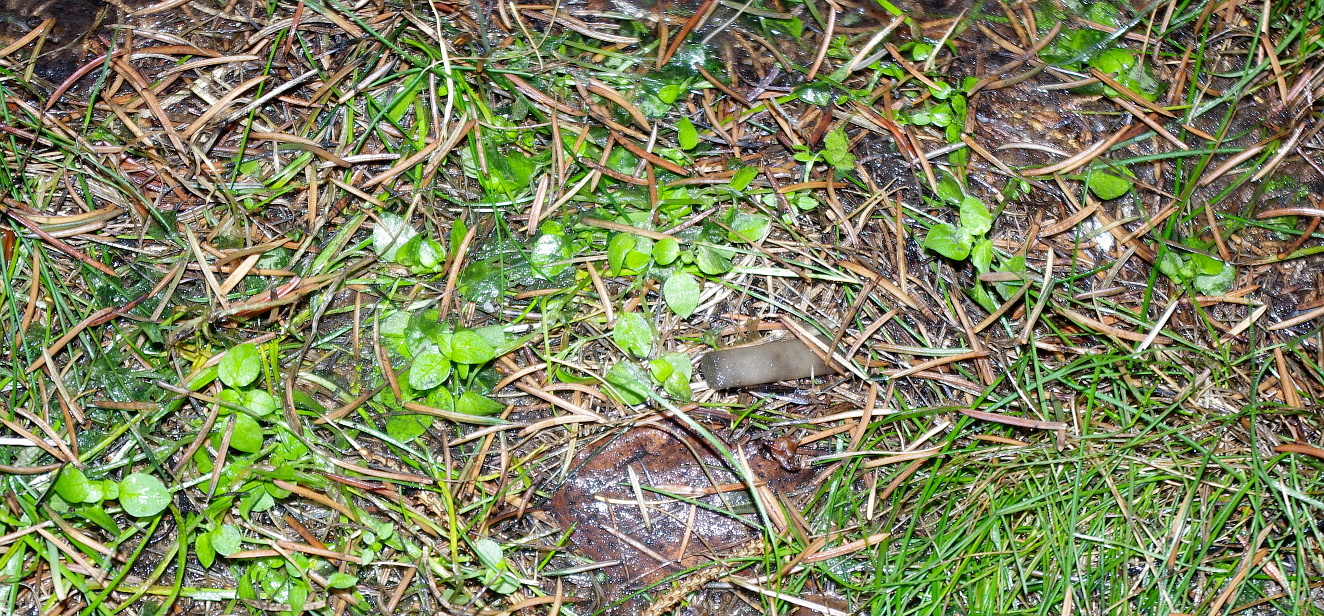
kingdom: Plantae
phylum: Tracheophyta
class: Magnoliopsida
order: Caryophyllales
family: Caryophyllaceae
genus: Stellaria
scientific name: Stellaria media
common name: Common chickweed
